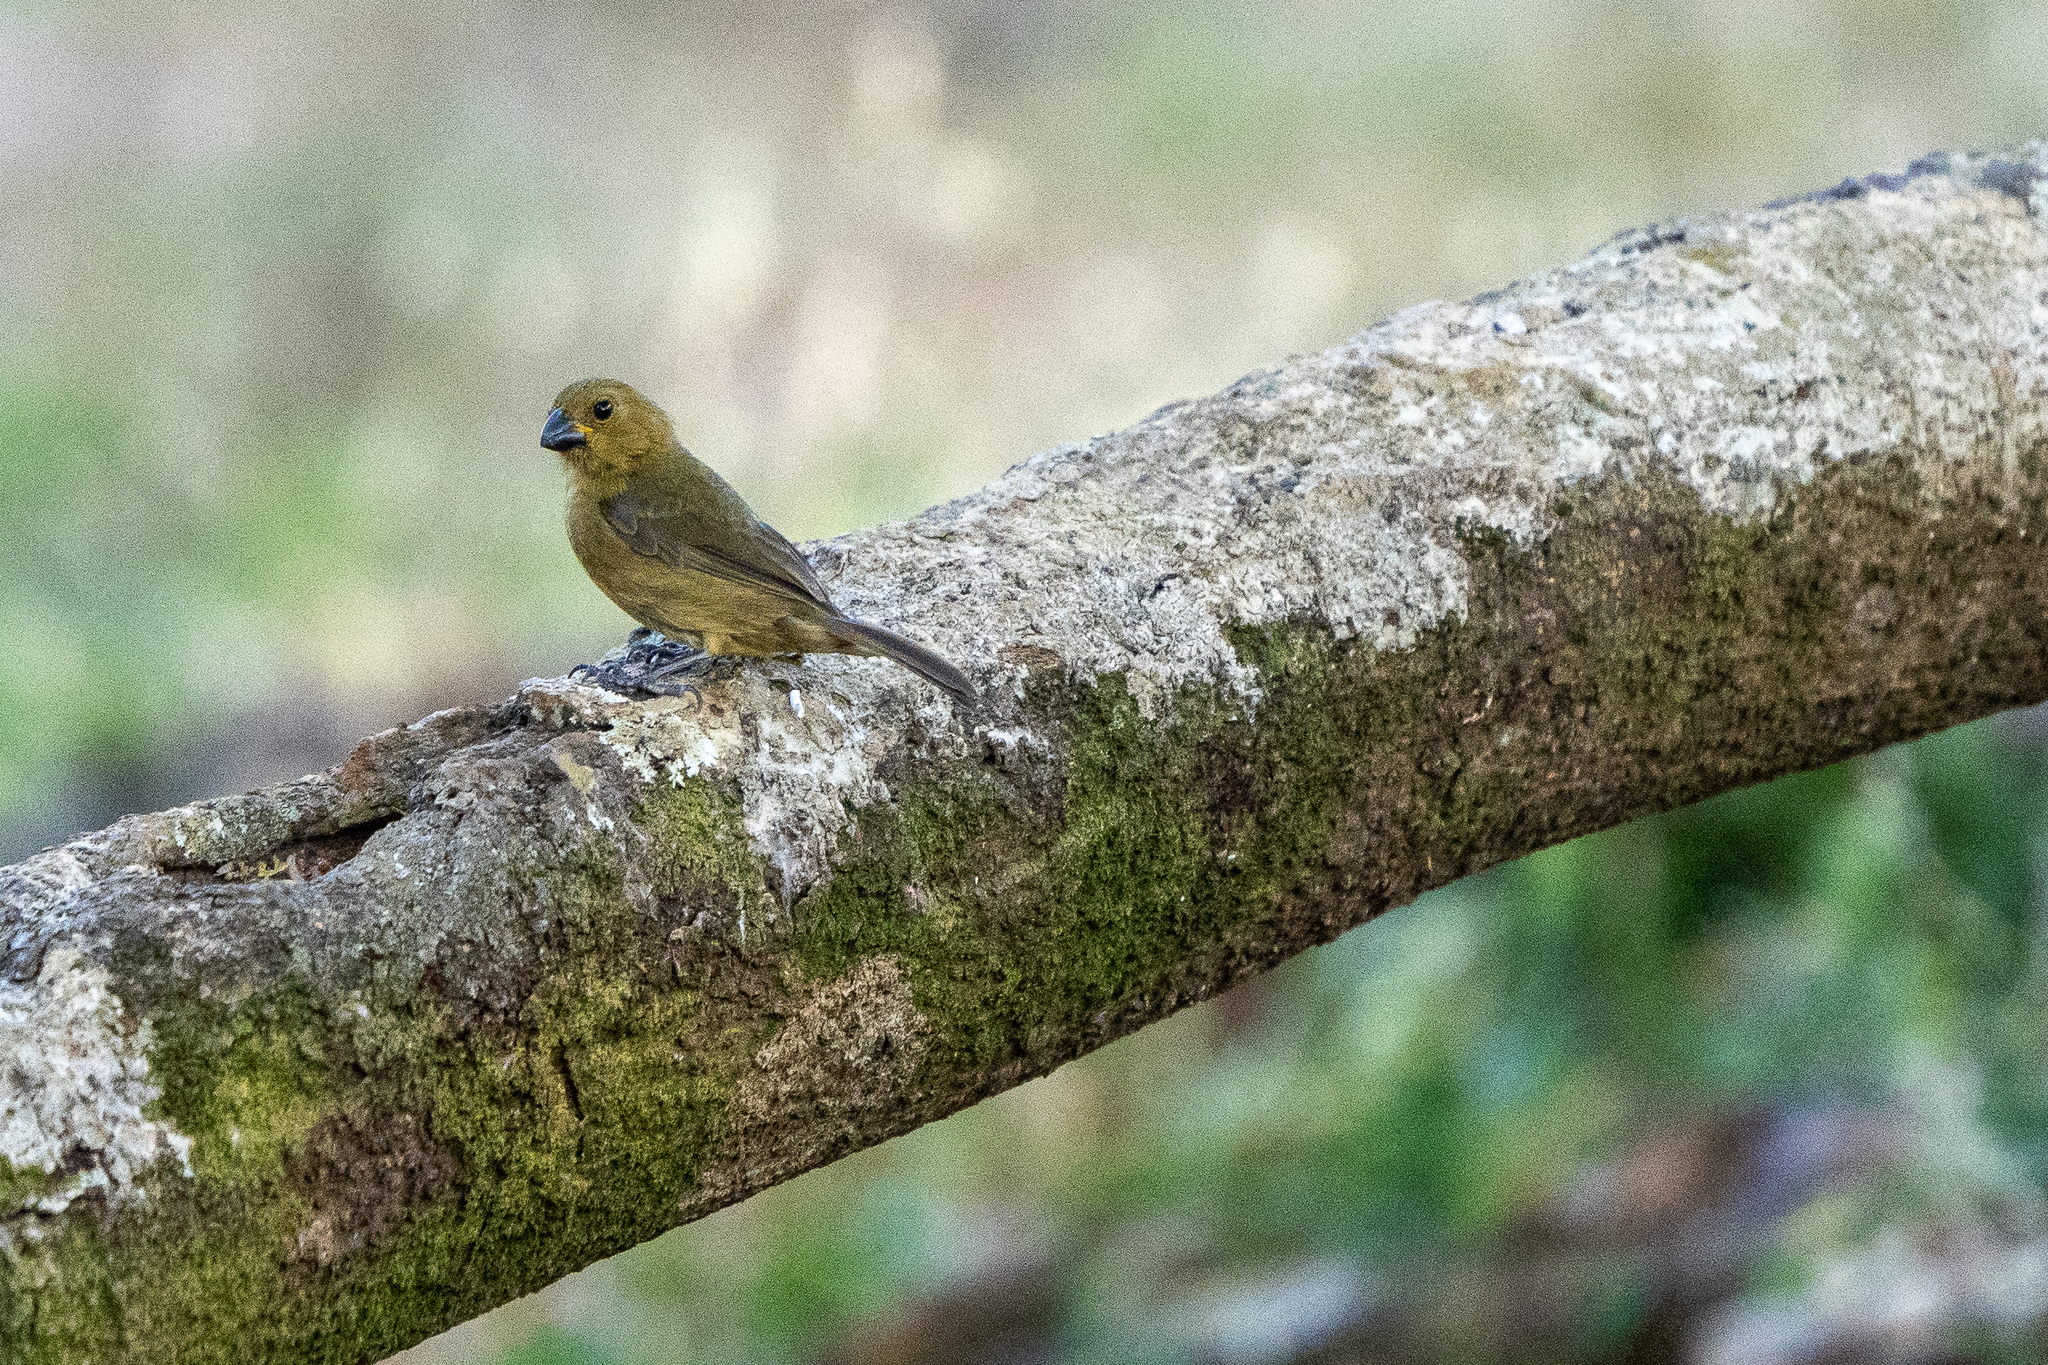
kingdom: Animalia
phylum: Chordata
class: Aves
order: Passeriformes
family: Thraupidae
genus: Sporophila
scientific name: Sporophila corvina
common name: Variable seedeater
